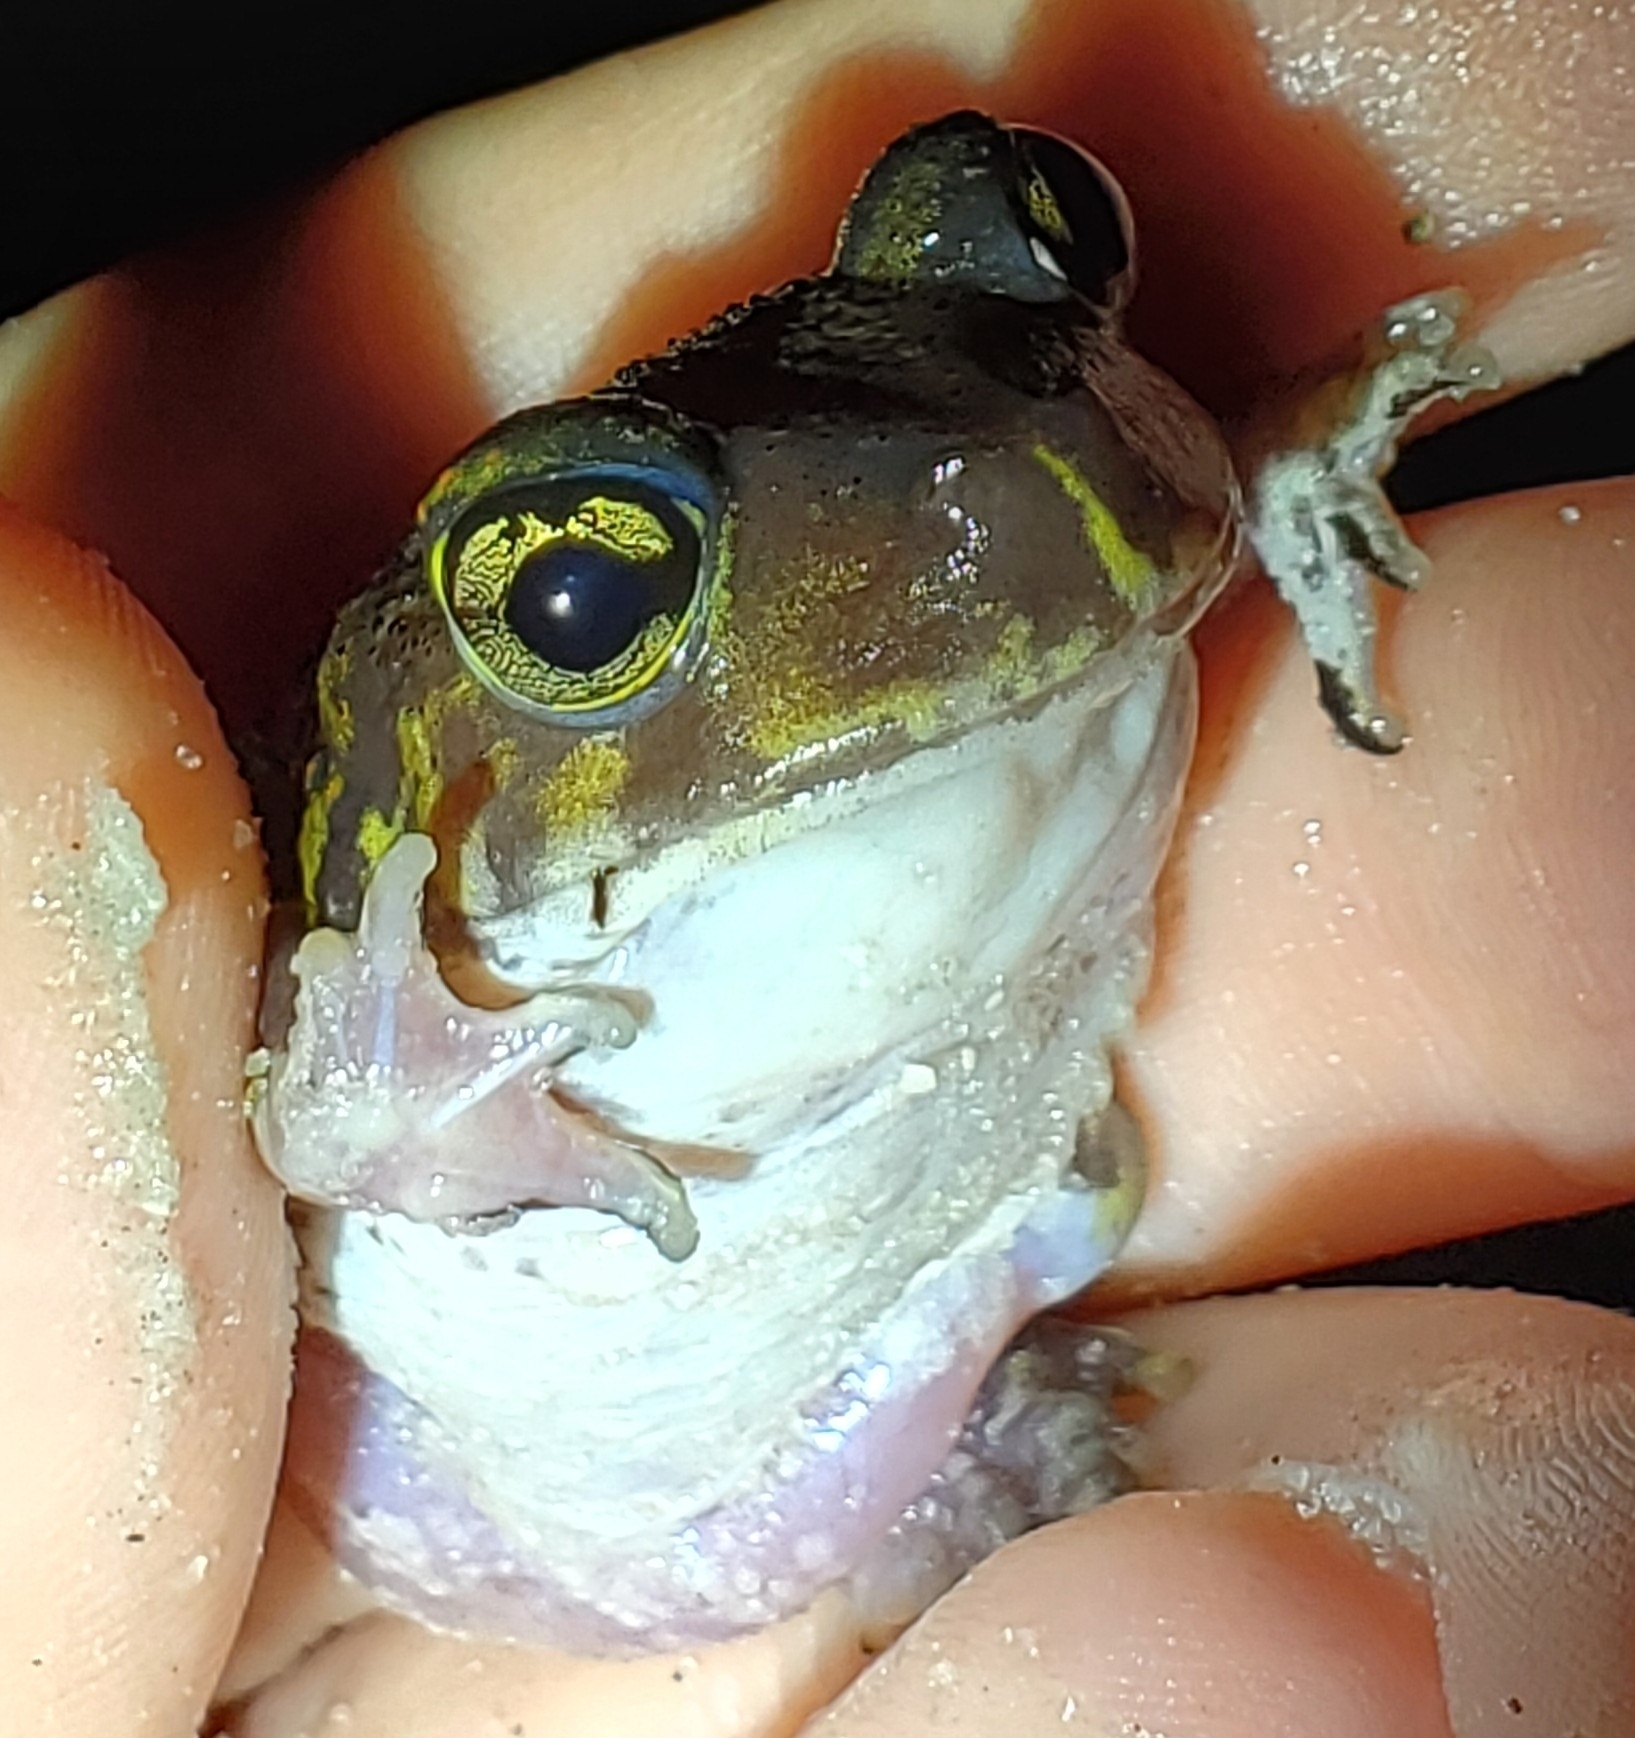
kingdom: Animalia
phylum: Chordata
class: Amphibia
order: Anura
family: Scaphiopodidae
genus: Scaphiopus
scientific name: Scaphiopus holbrookii
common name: Eastern spadefoot toad
